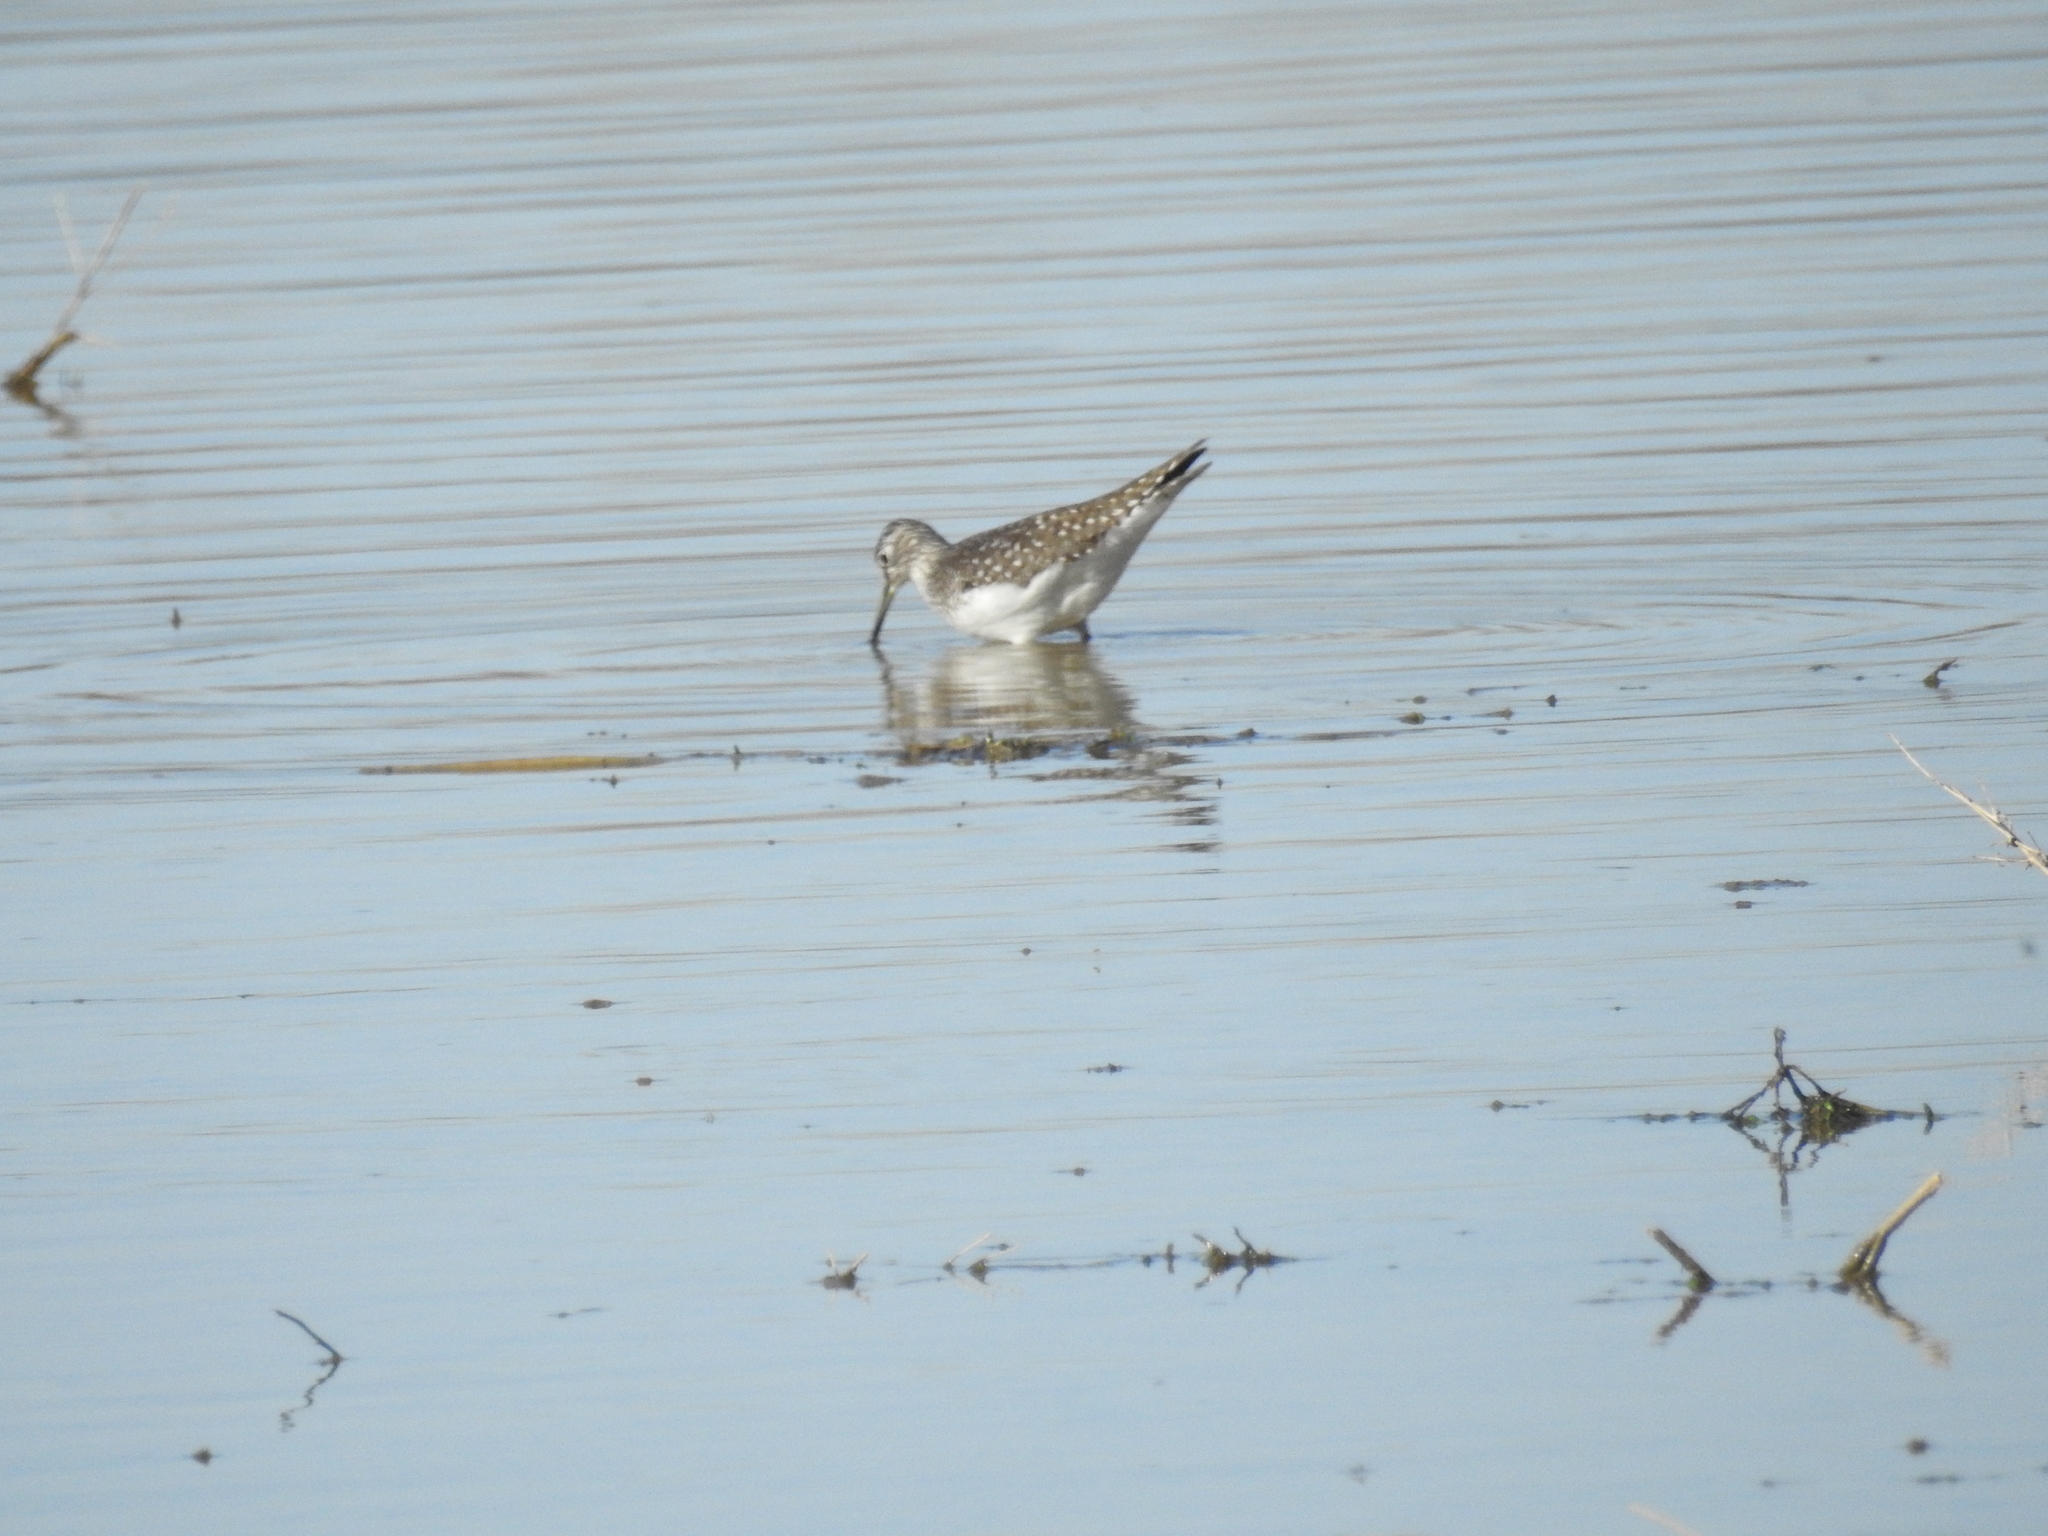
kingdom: Animalia
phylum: Chordata
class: Aves
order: Charadriiformes
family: Scolopacidae
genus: Tringa
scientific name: Tringa solitaria
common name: Solitary sandpiper
